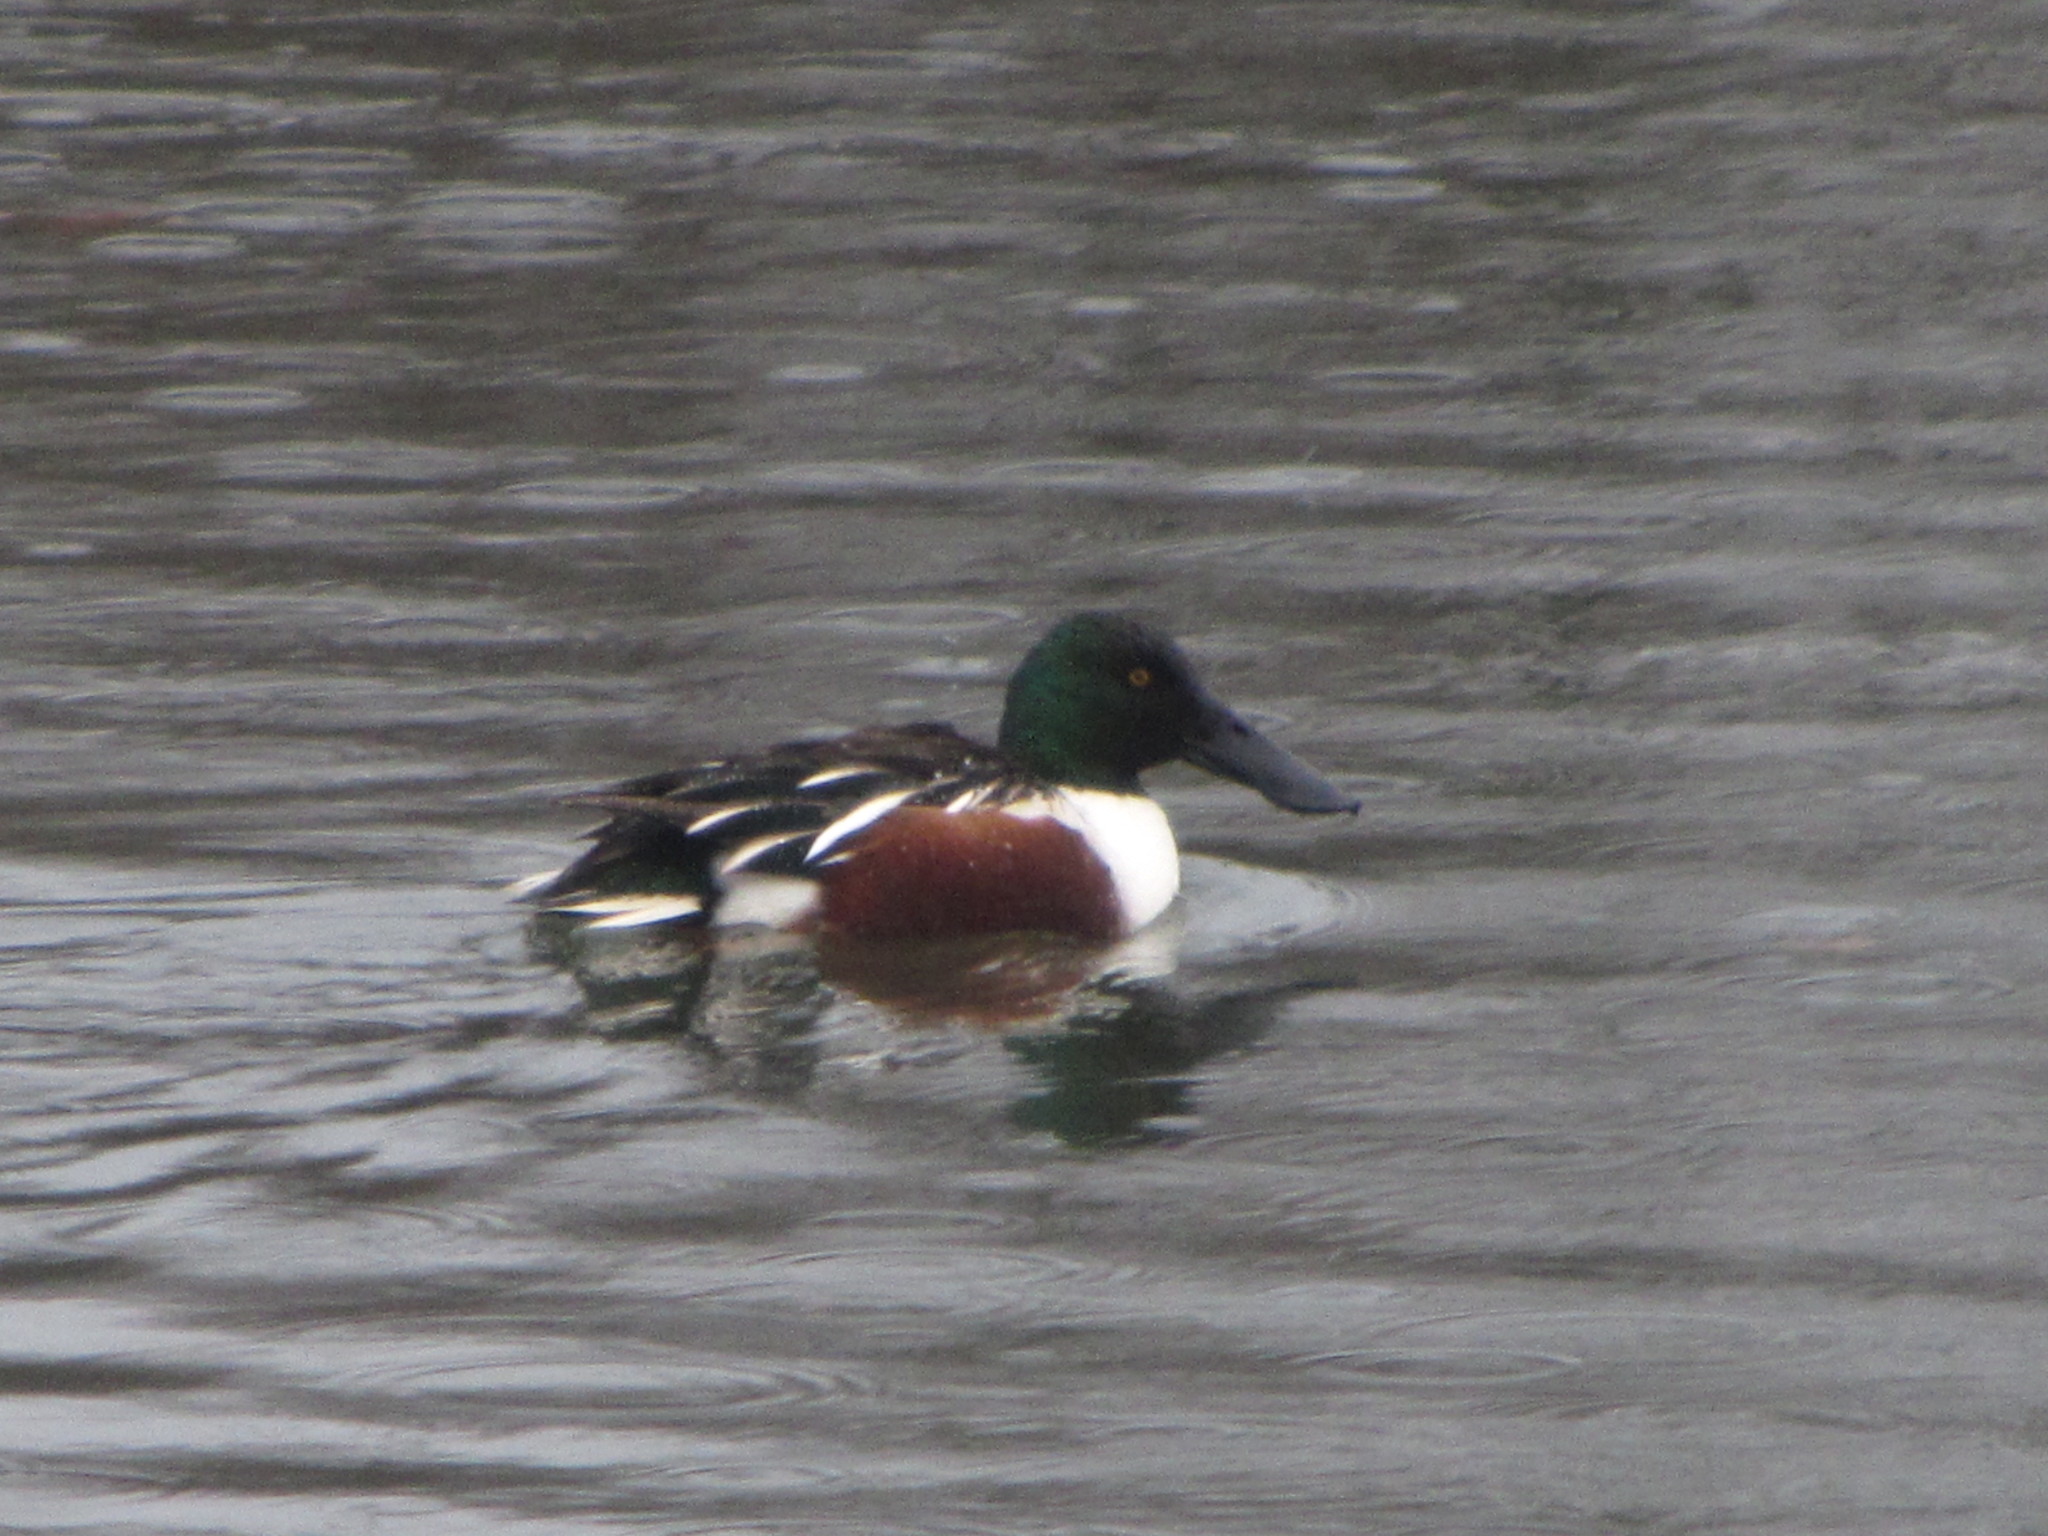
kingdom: Animalia
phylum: Chordata
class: Aves
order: Anseriformes
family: Anatidae
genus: Spatula
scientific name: Spatula clypeata
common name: Northern shoveler
